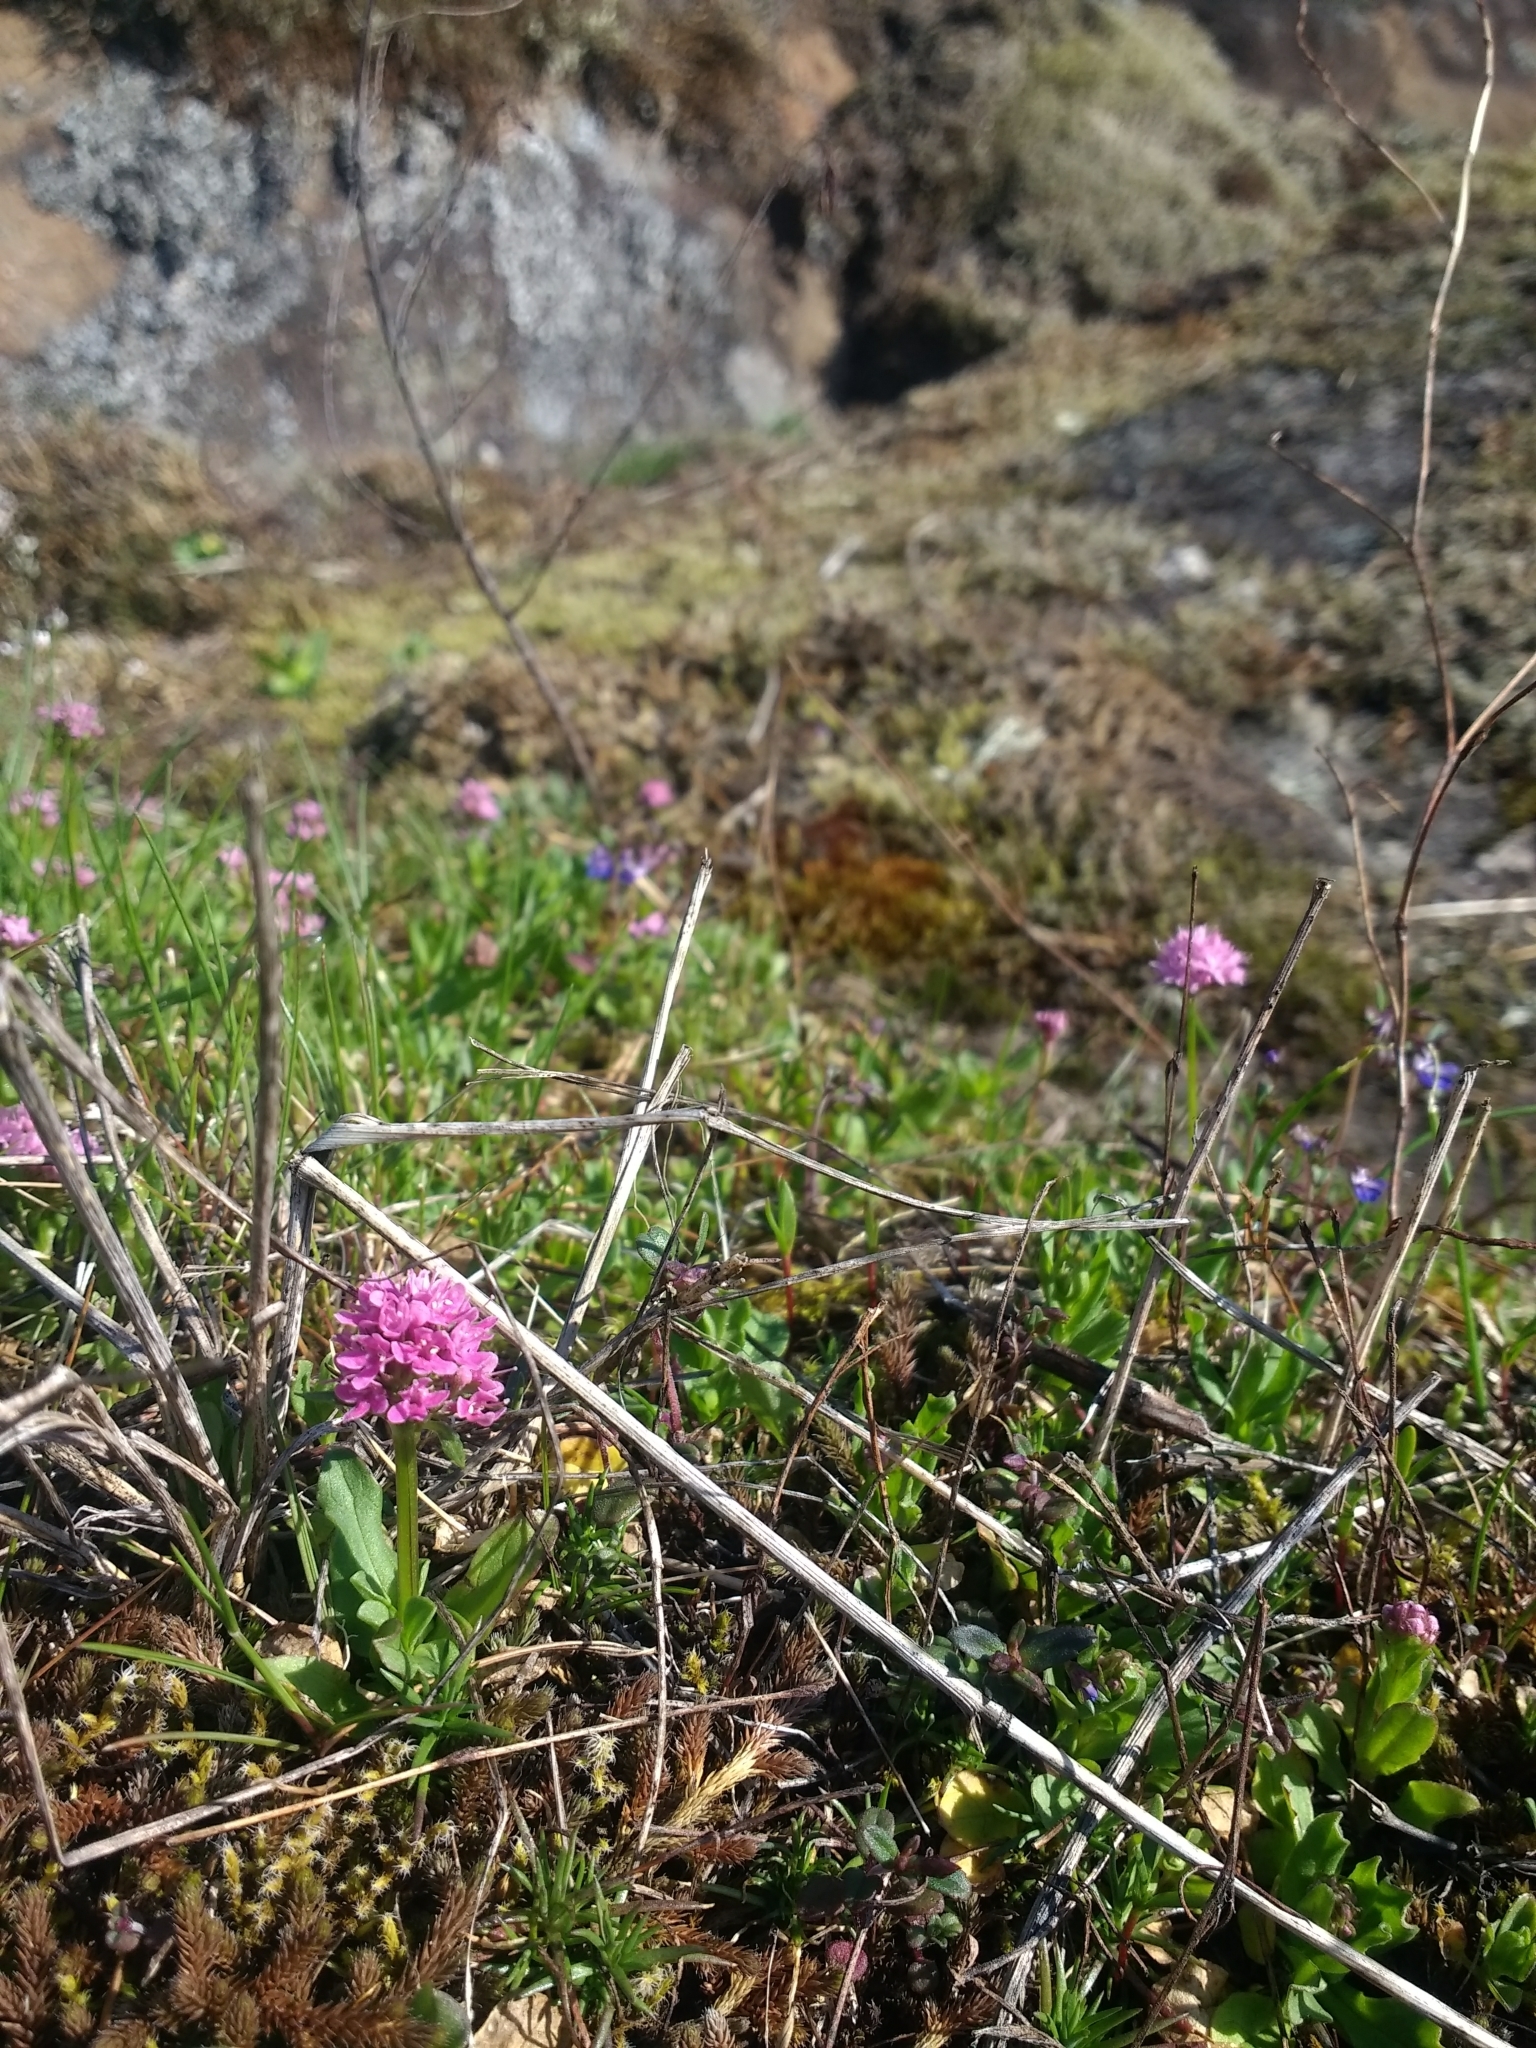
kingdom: Plantae
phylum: Tracheophyta
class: Magnoliopsida
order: Dipsacales
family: Caprifoliaceae
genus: Plectritis
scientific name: Plectritis congesta
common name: Pink plectritis
